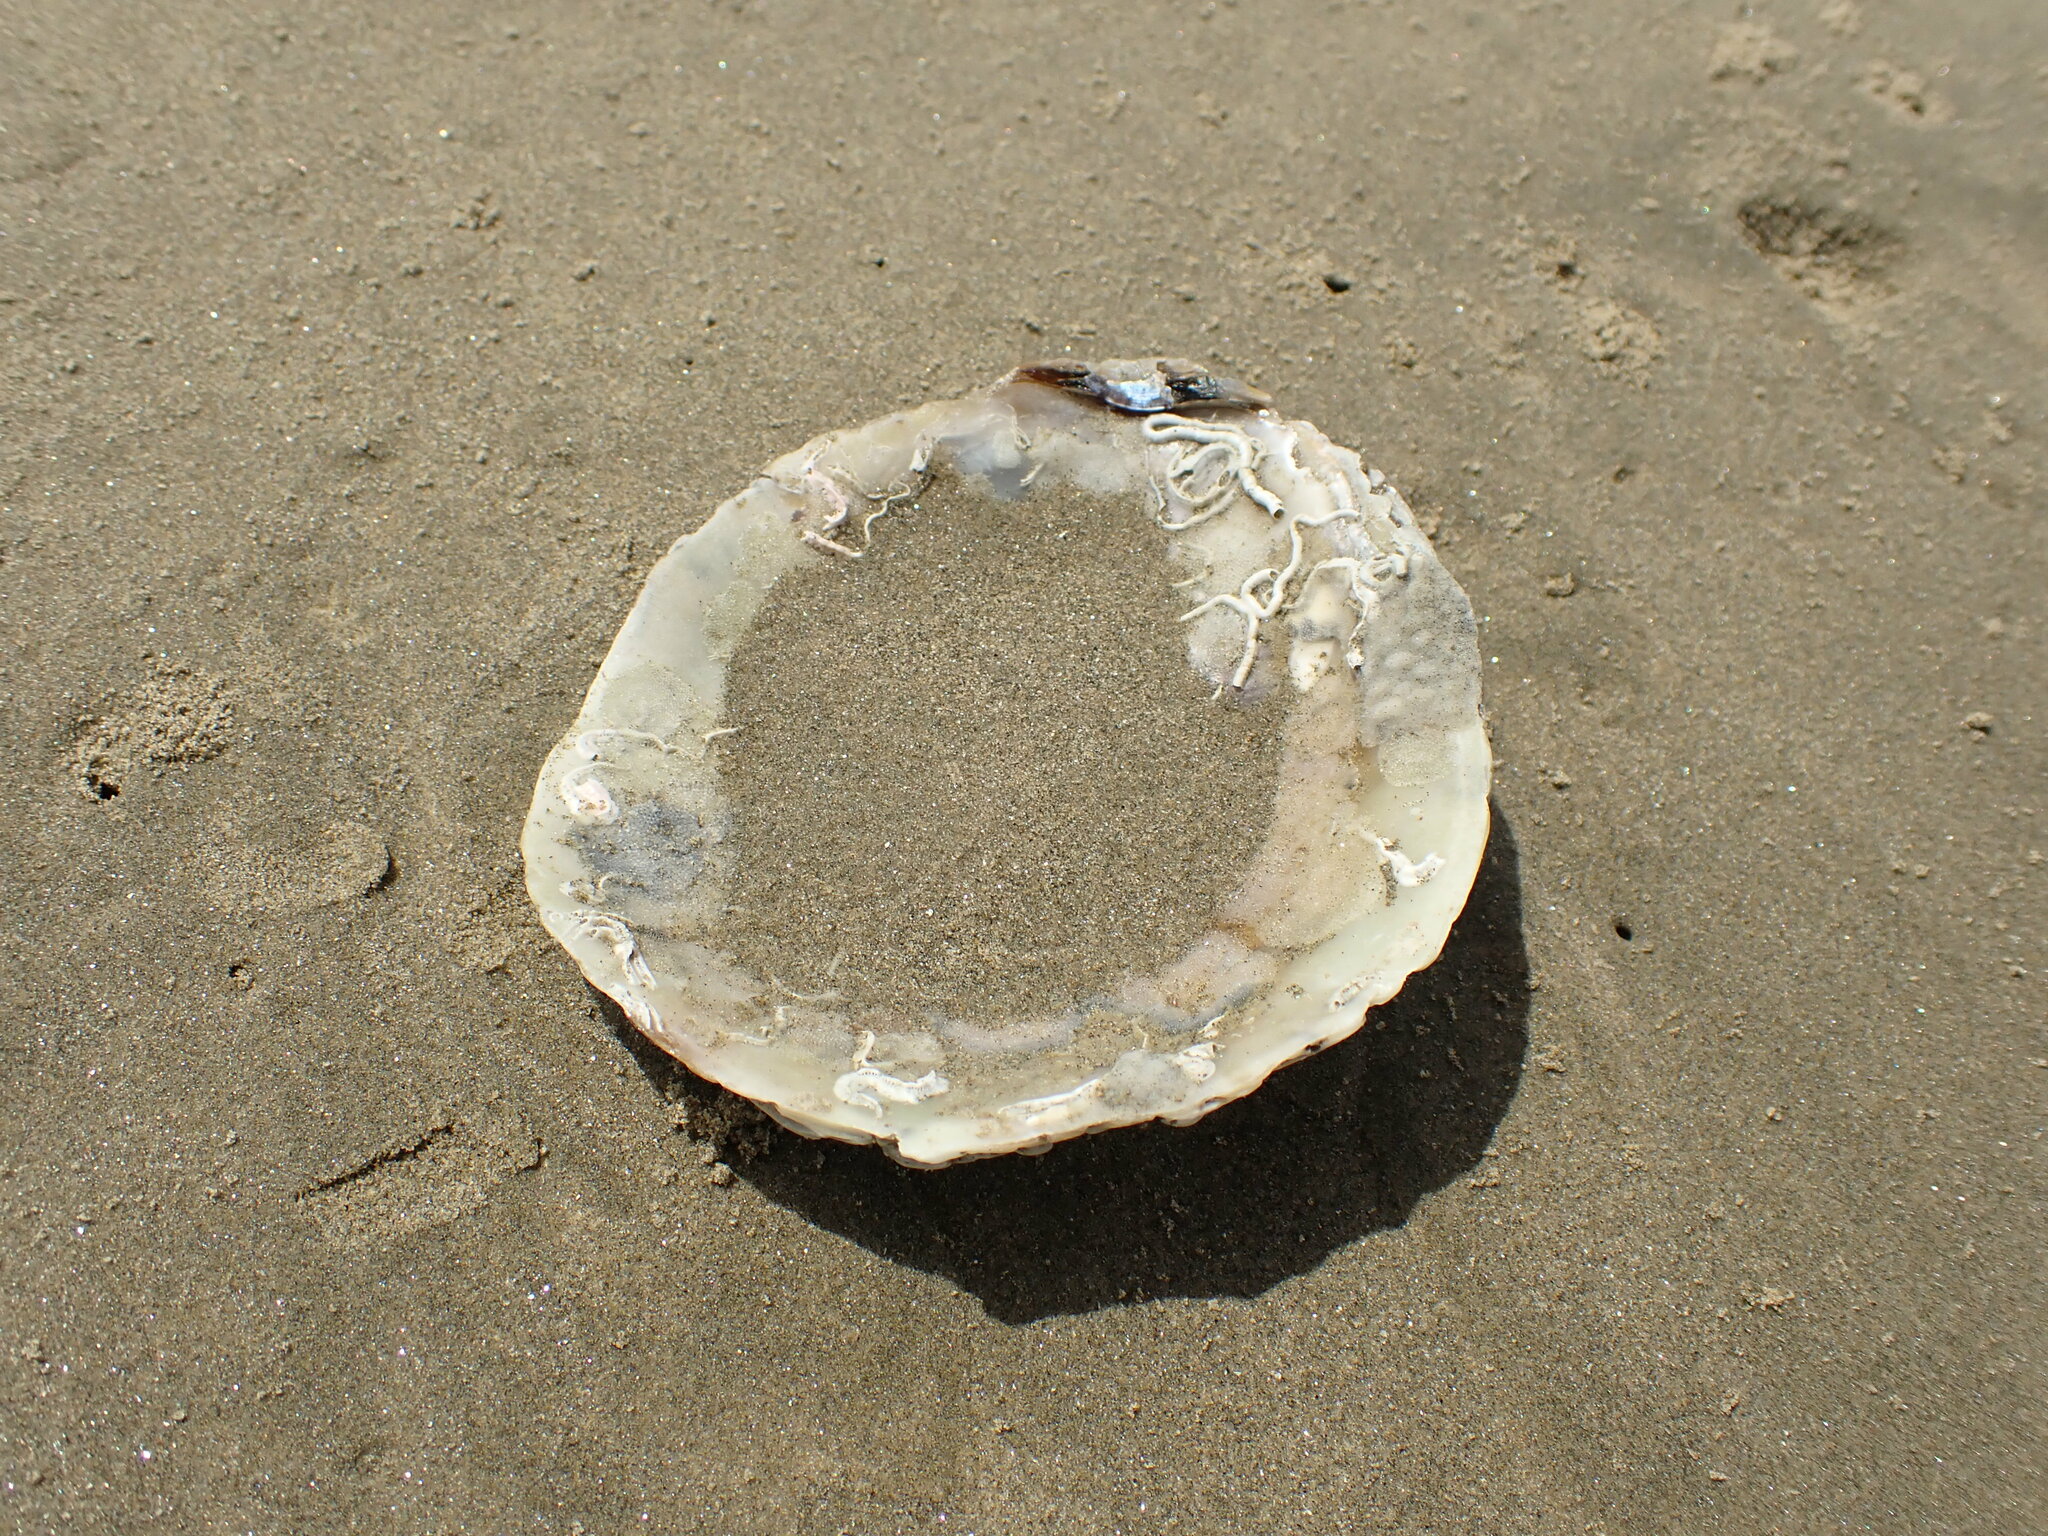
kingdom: Animalia
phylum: Mollusca
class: Bivalvia
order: Ostreida
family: Ostreidae
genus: Ostrea
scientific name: Ostrea chilensis
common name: Chilean oyster
